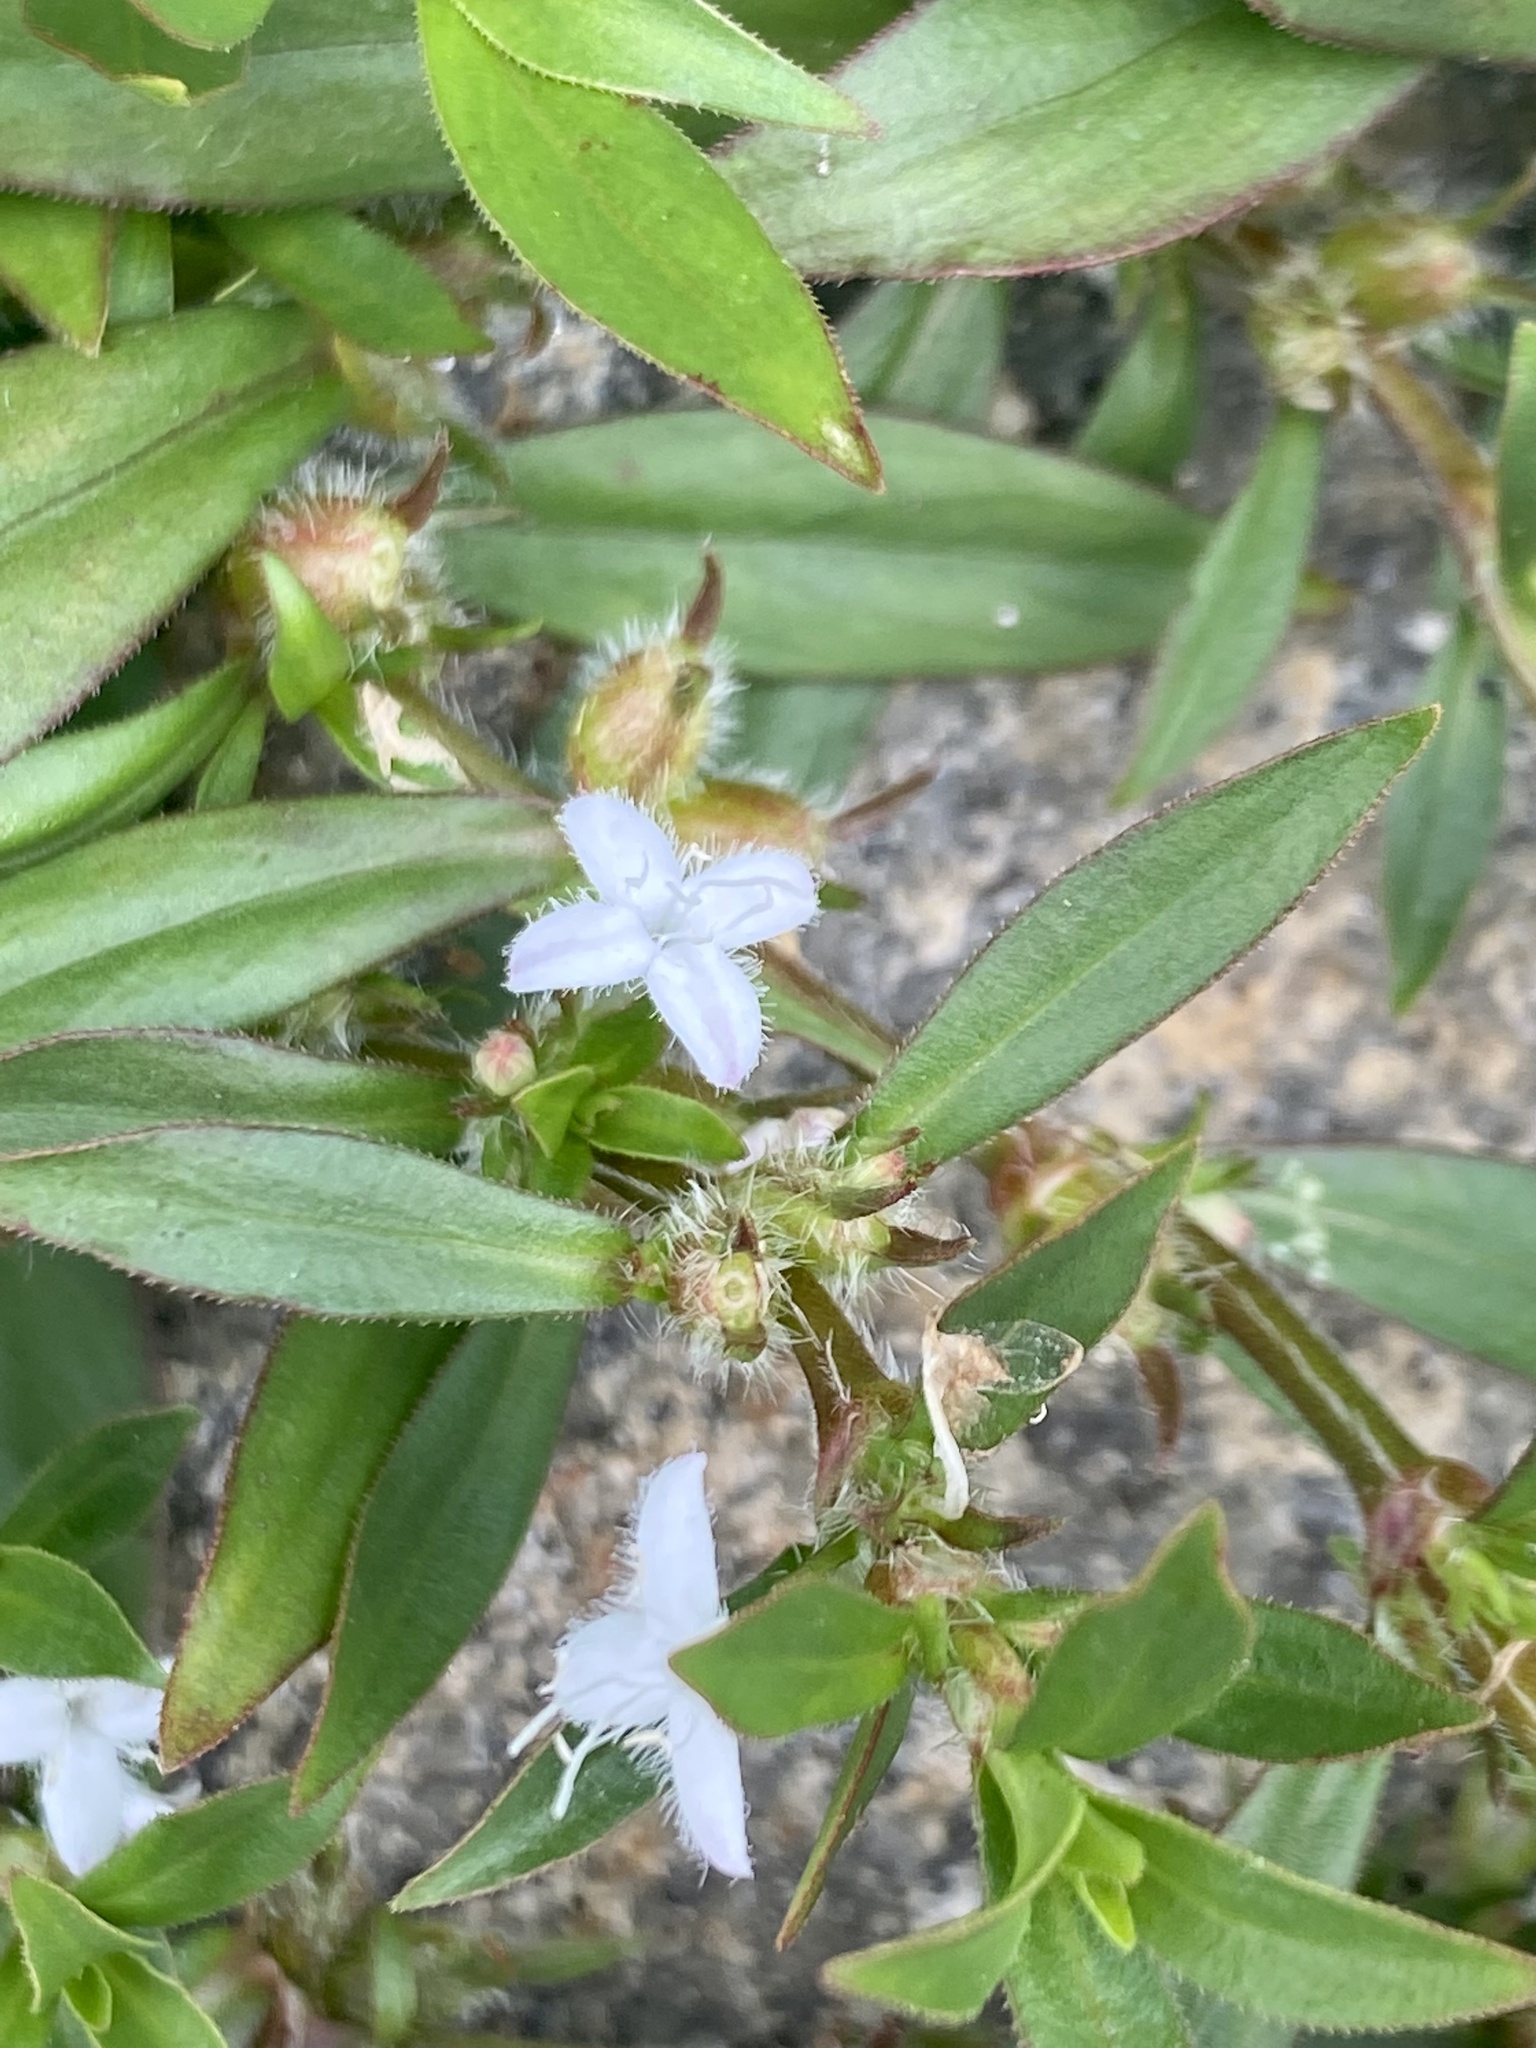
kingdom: Plantae
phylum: Tracheophyta
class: Magnoliopsida
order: Gentianales
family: Rubiaceae
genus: Diodia
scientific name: Diodia virginiana
